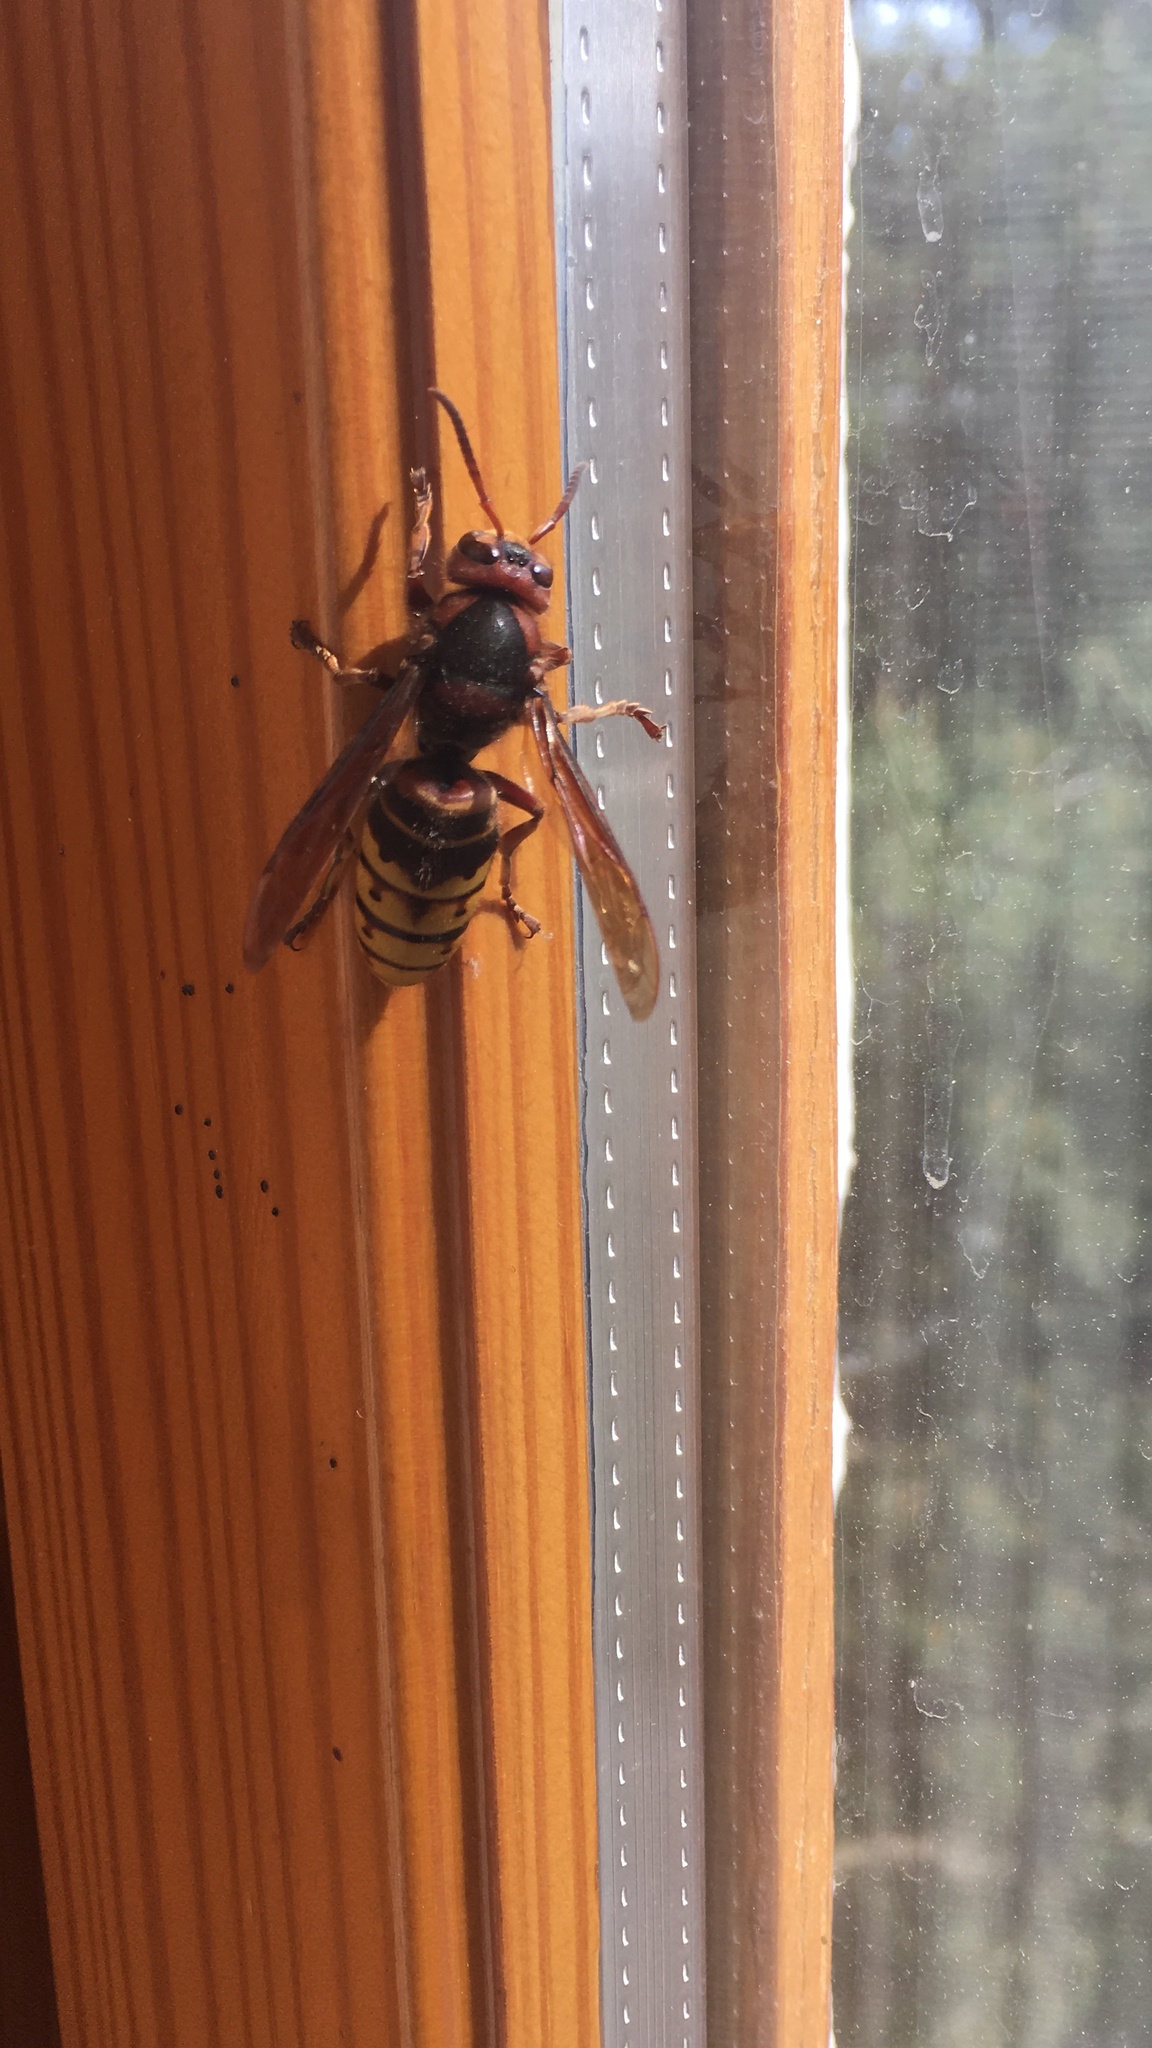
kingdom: Animalia
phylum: Arthropoda
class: Insecta
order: Hymenoptera
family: Vespidae
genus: Vespa
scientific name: Vespa crabro
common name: Hornet
